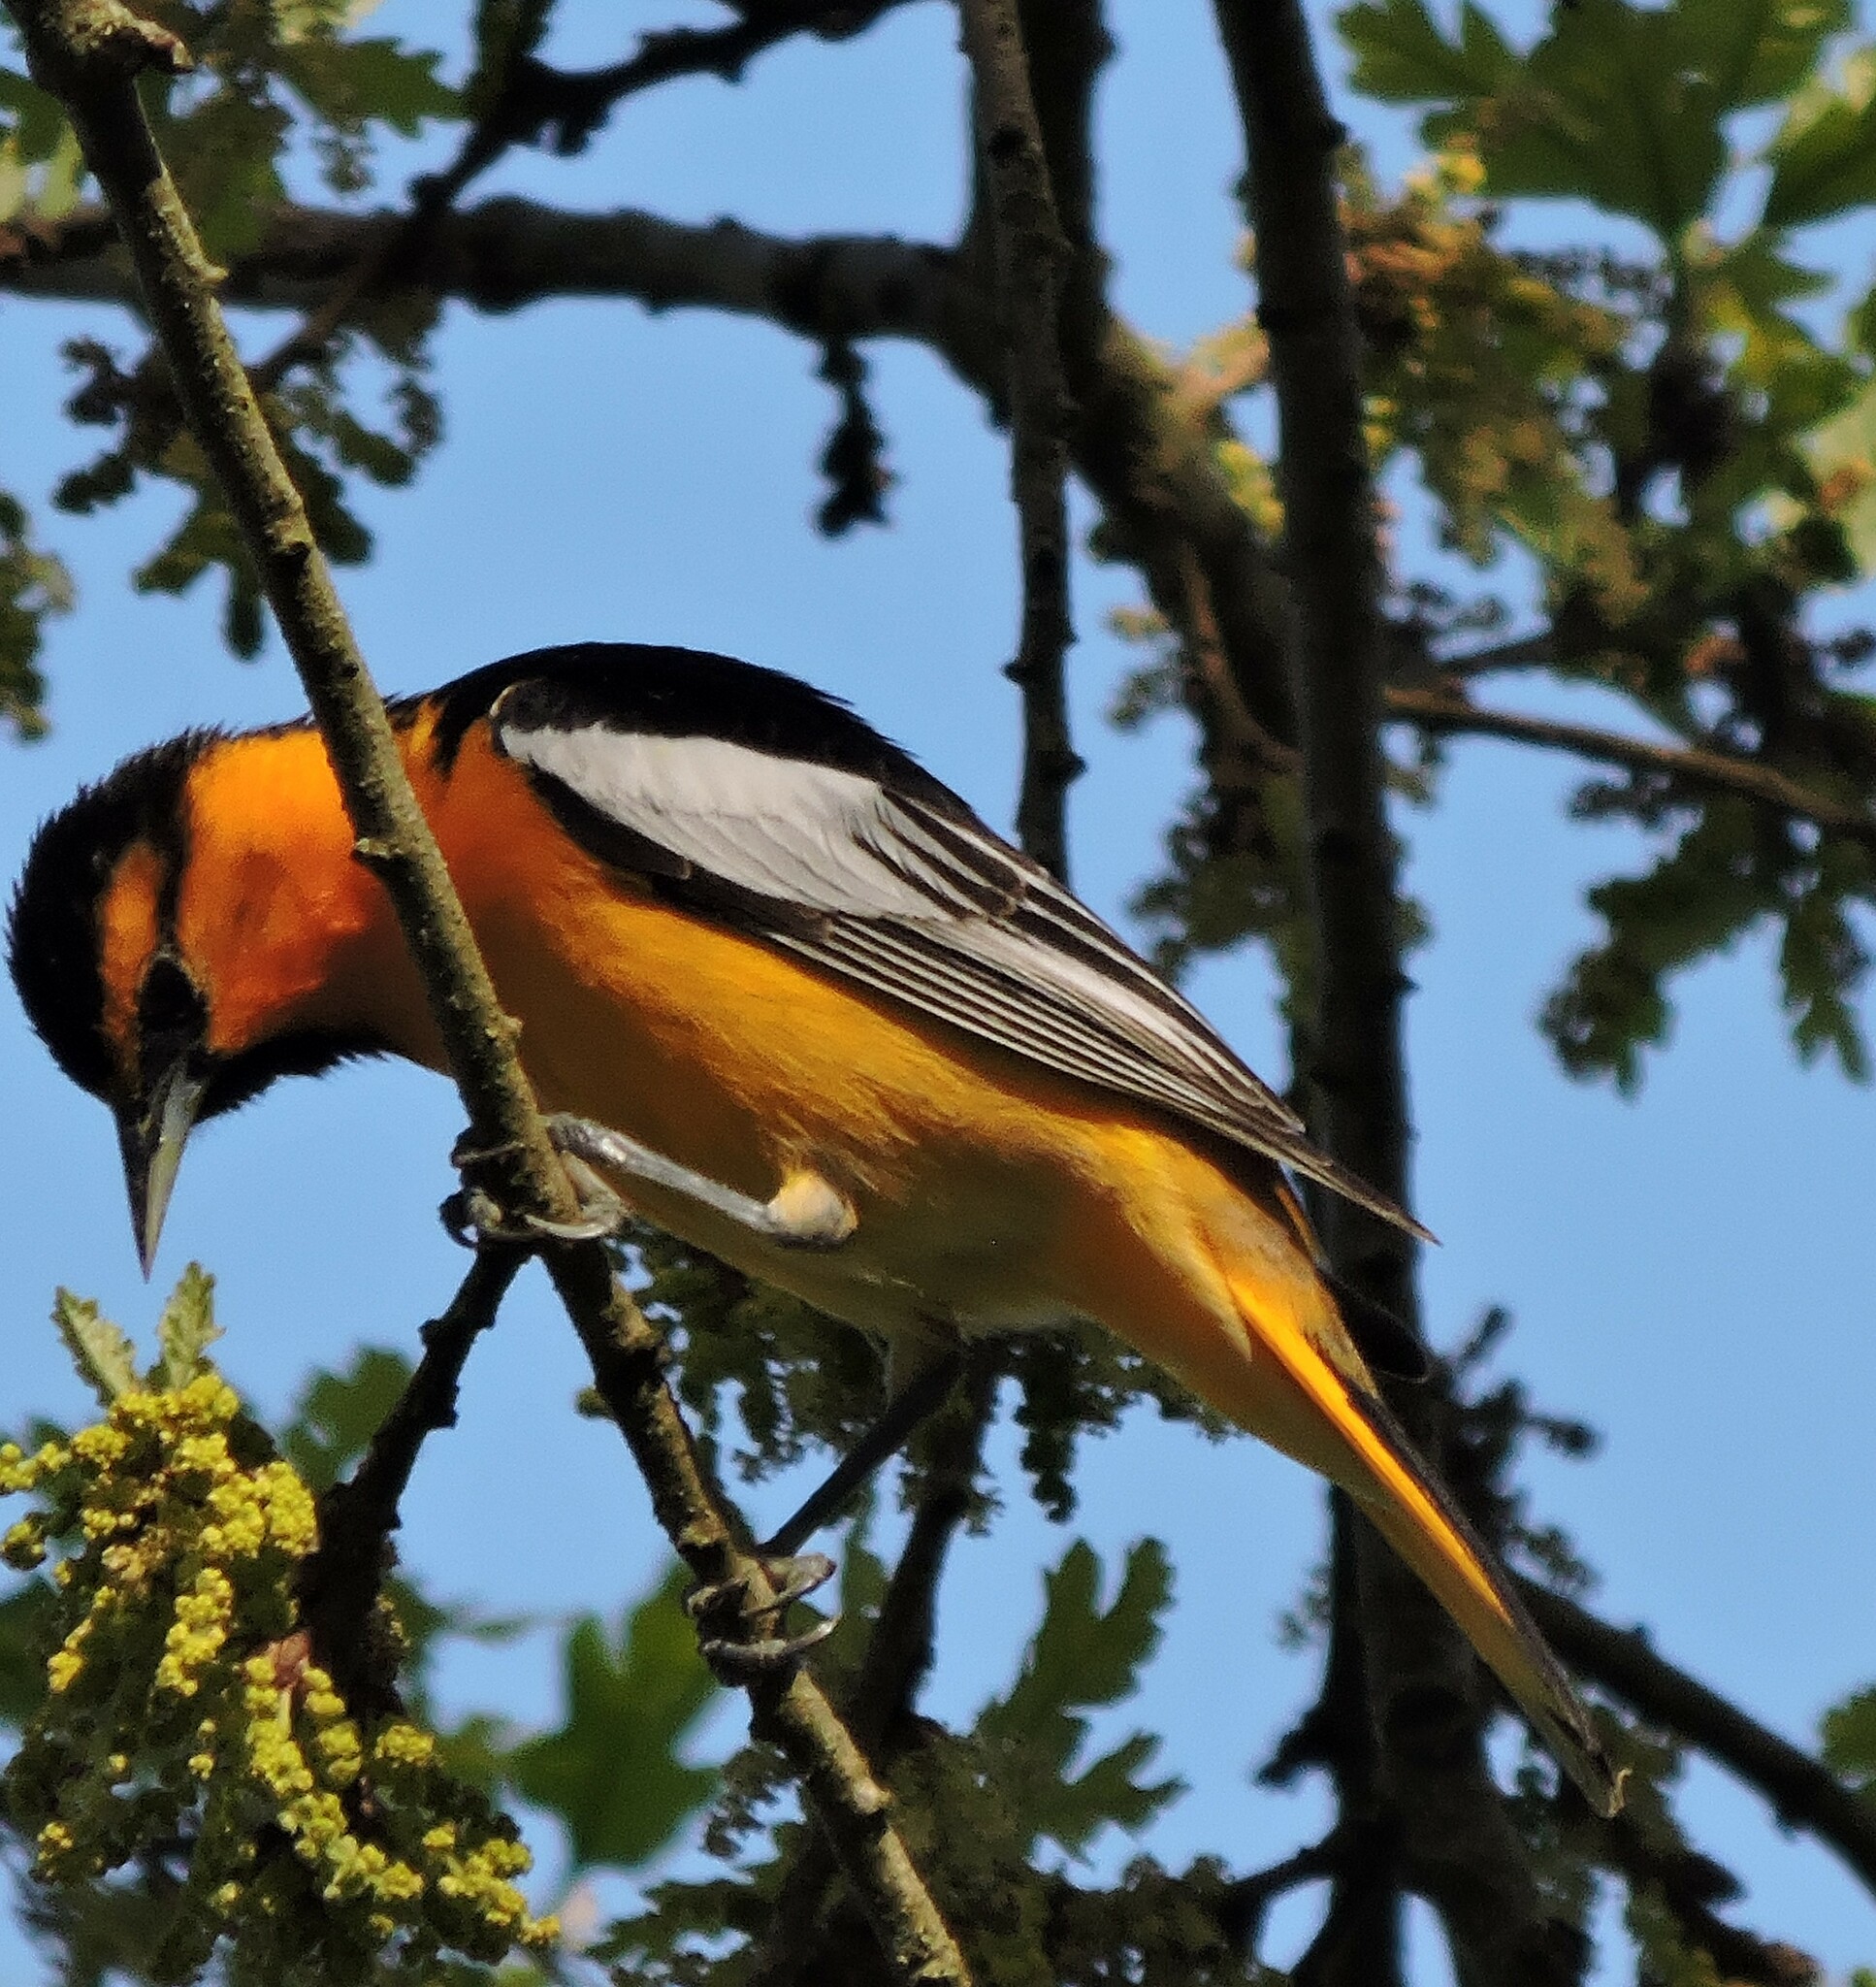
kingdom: Animalia
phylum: Chordata
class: Aves
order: Passeriformes
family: Icteridae
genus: Icterus
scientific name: Icterus bullockii
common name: Bullock's oriole
